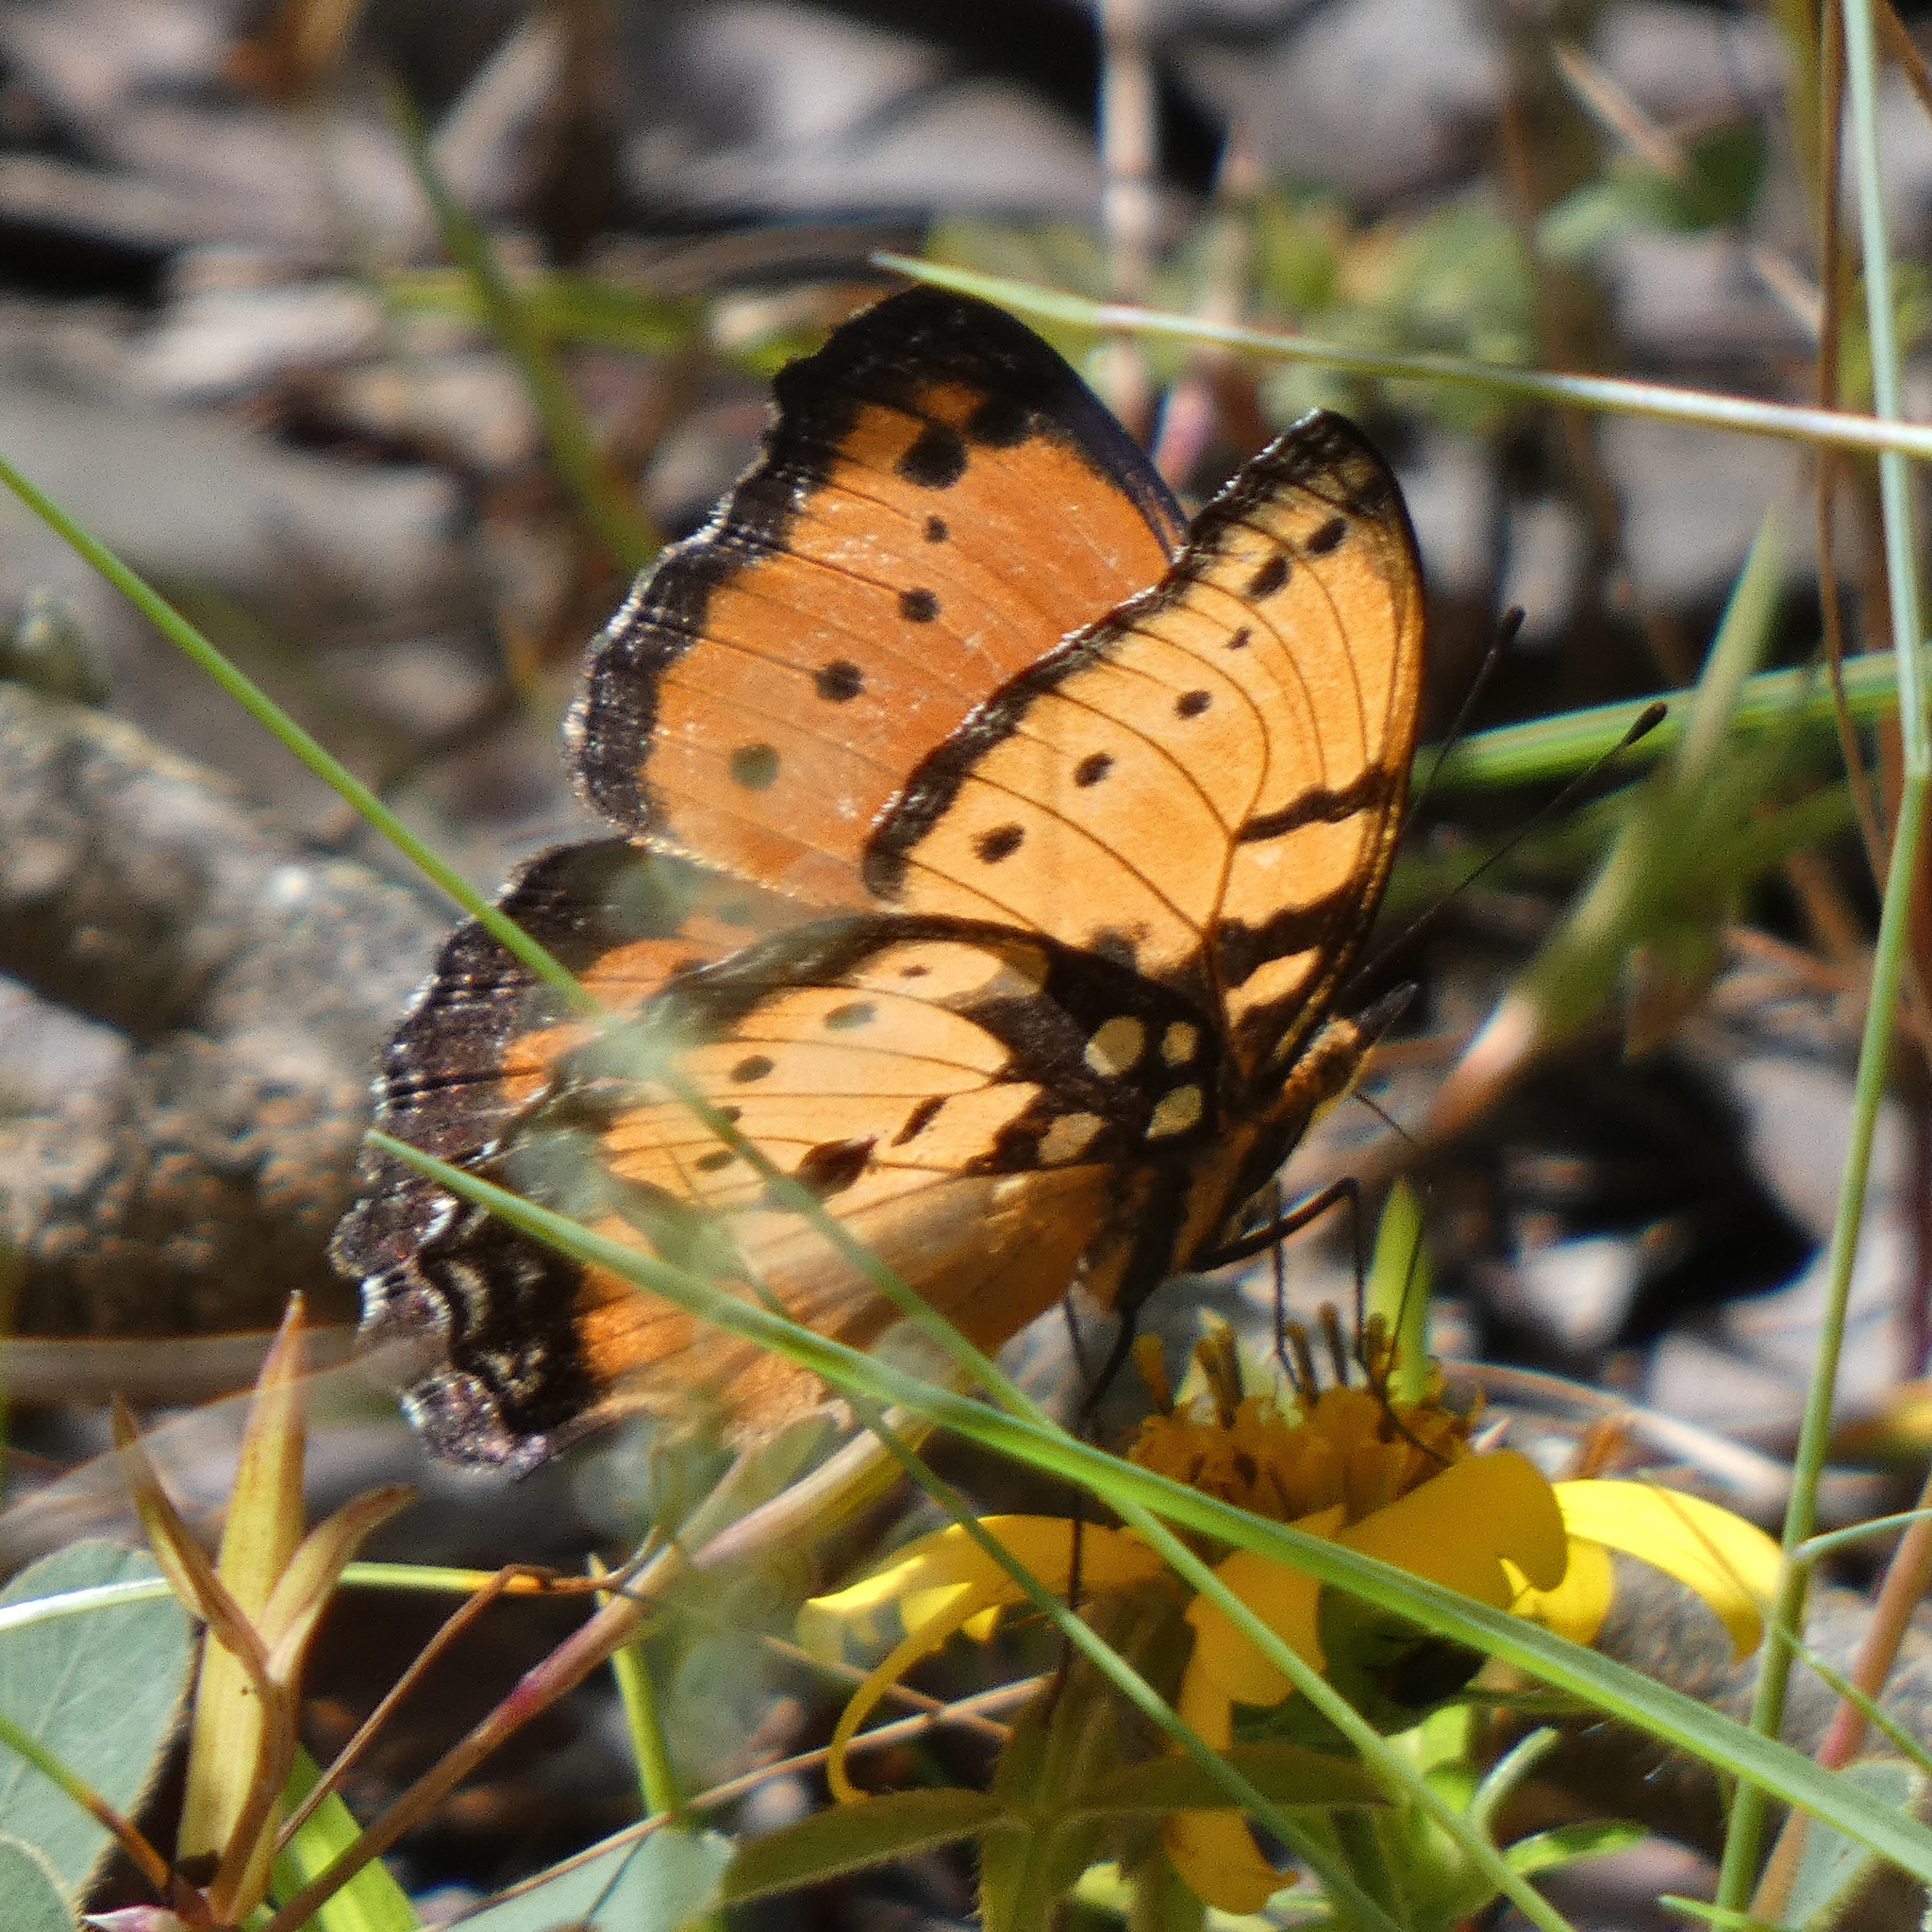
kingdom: Animalia
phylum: Arthropoda
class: Insecta
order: Lepidoptera
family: Nymphalidae
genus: Precis
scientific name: Precis octavia
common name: Gaudy commodore
